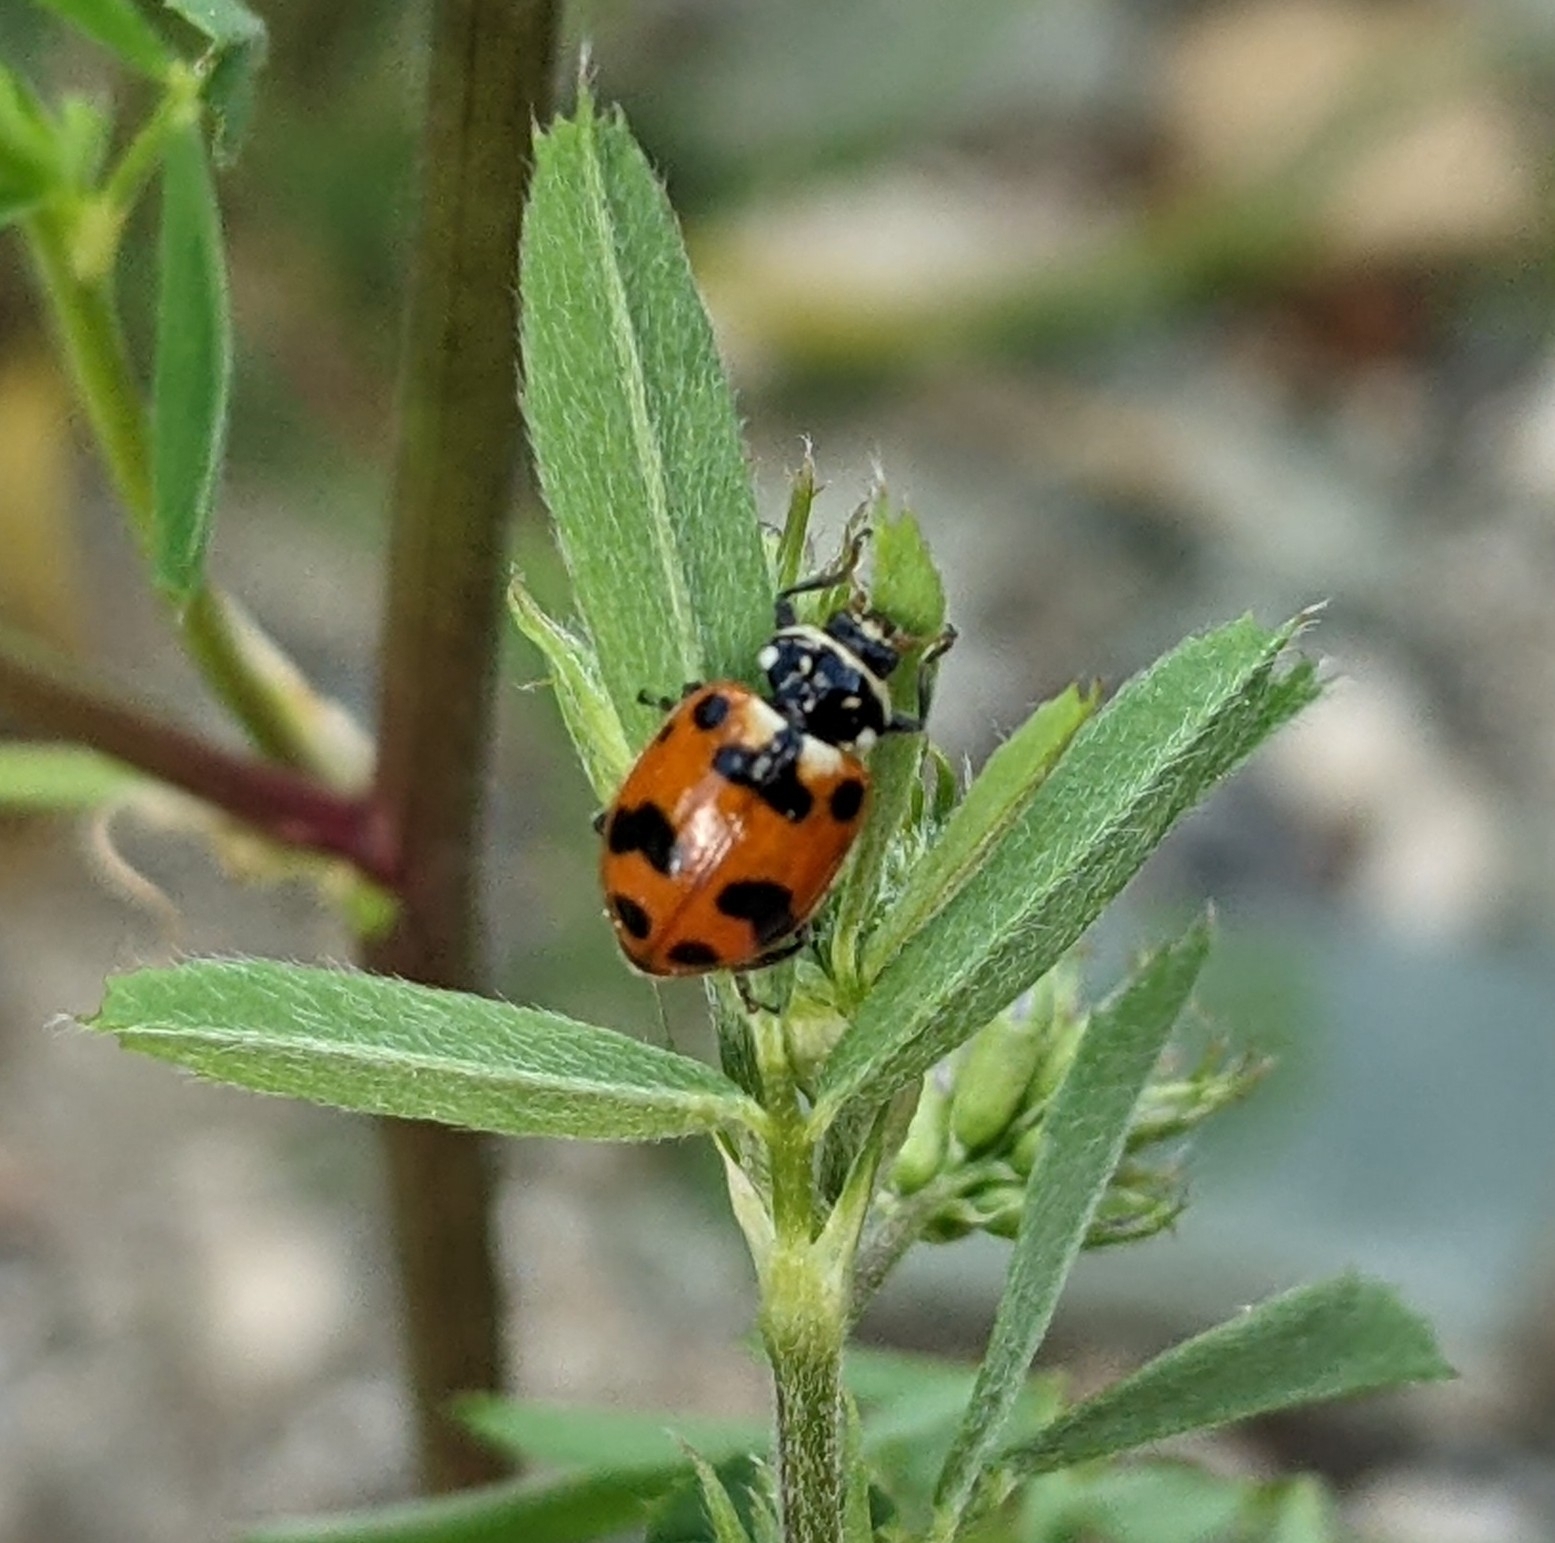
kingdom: Animalia
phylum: Arthropoda
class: Insecta
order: Coleoptera
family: Coccinellidae
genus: Hippodamia
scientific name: Hippodamia caseyi
